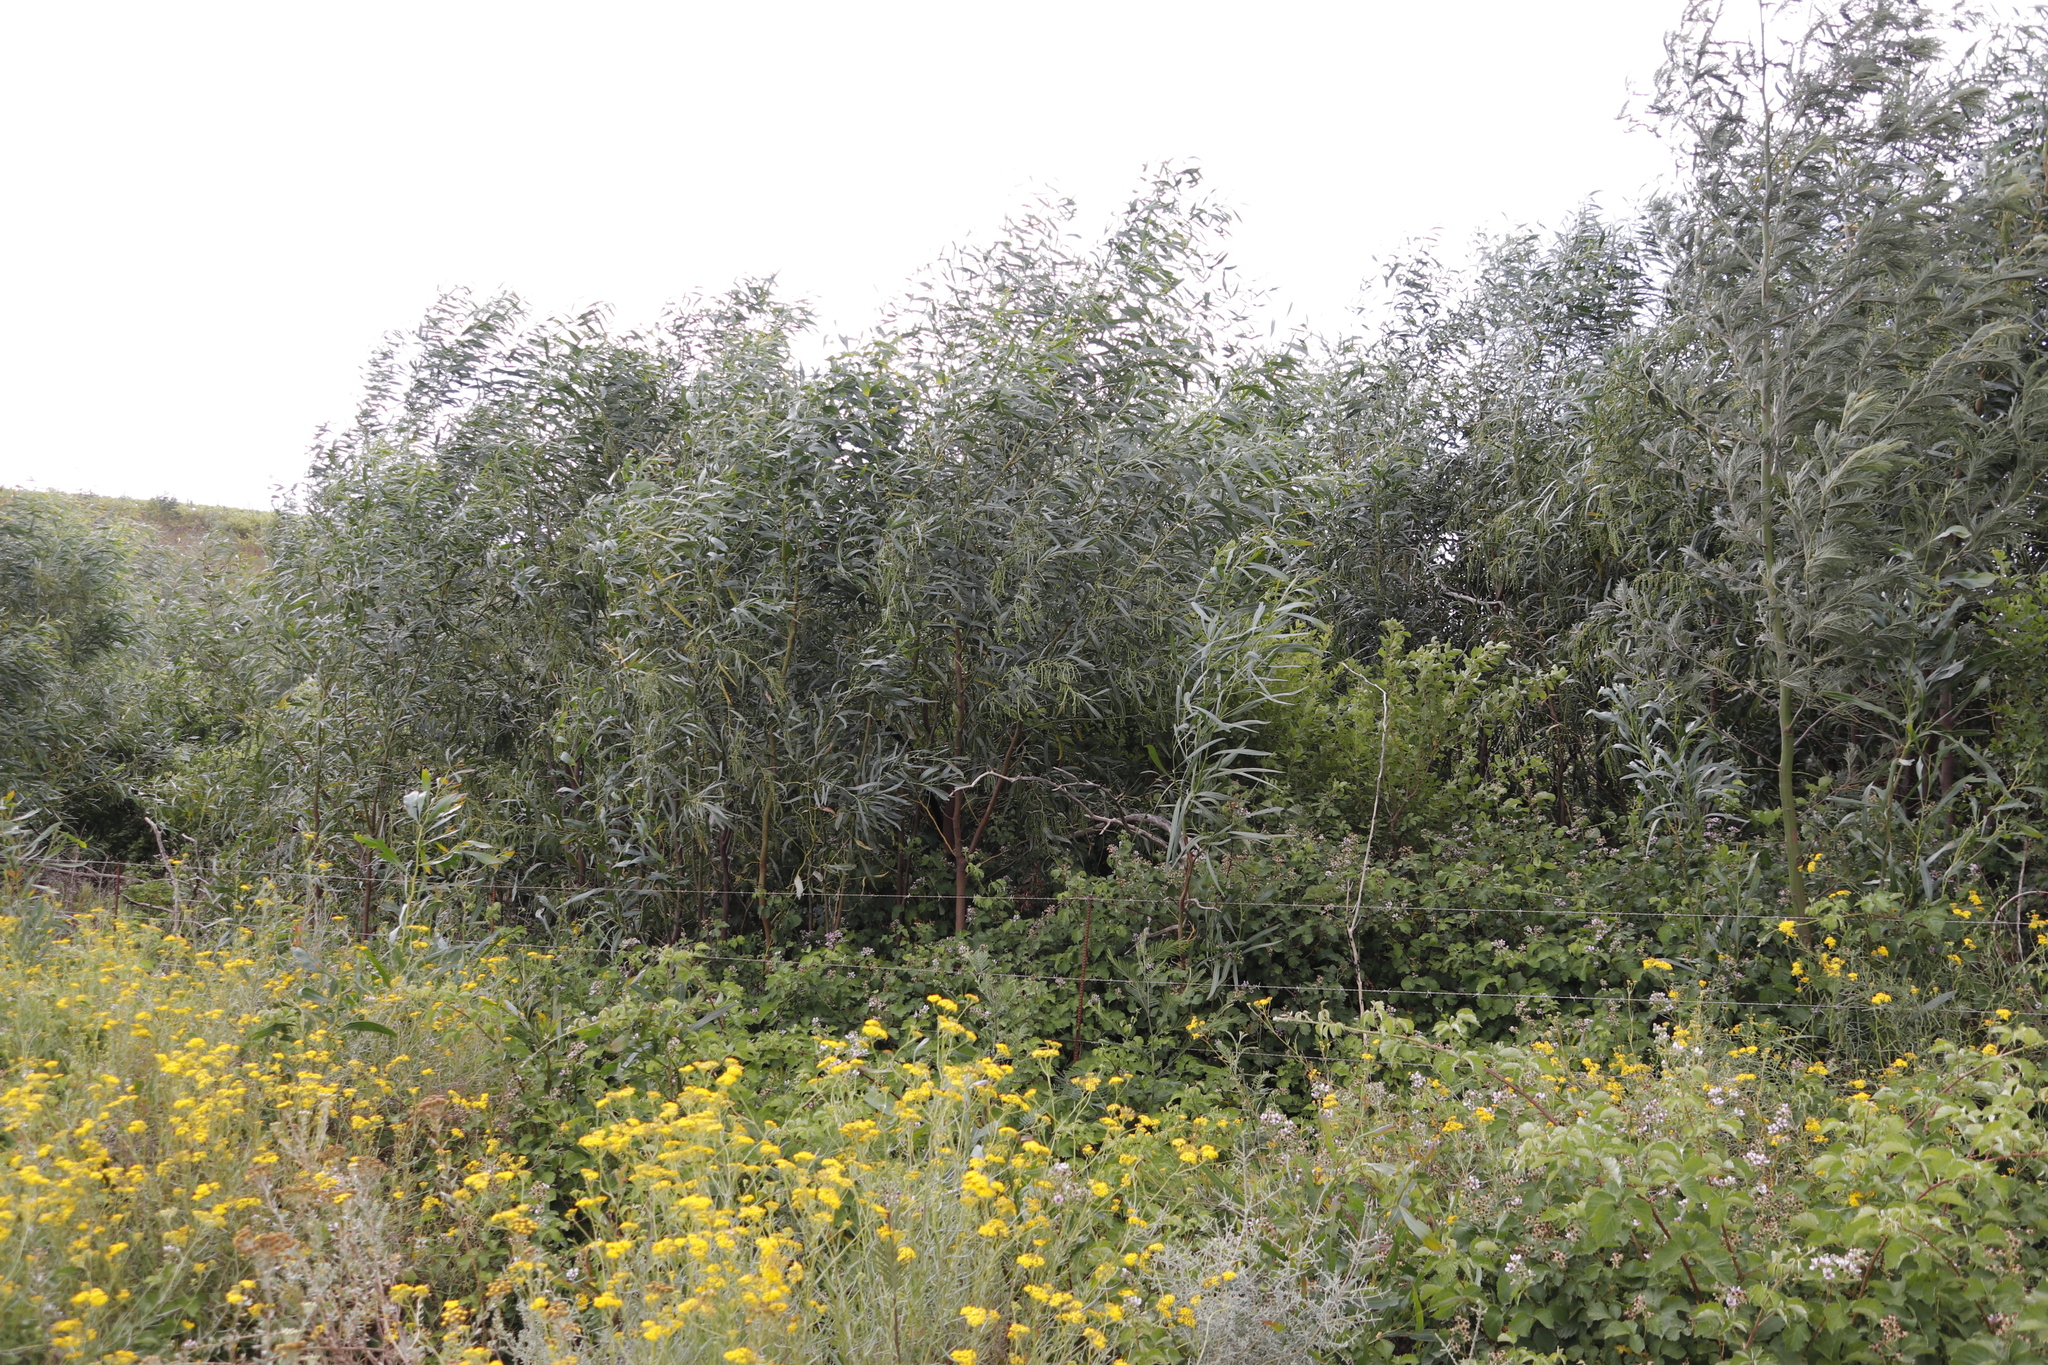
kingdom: Plantae
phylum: Tracheophyta
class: Magnoliopsida
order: Fabales
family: Fabaceae
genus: Acacia
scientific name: Acacia saligna
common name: Orange wattle
